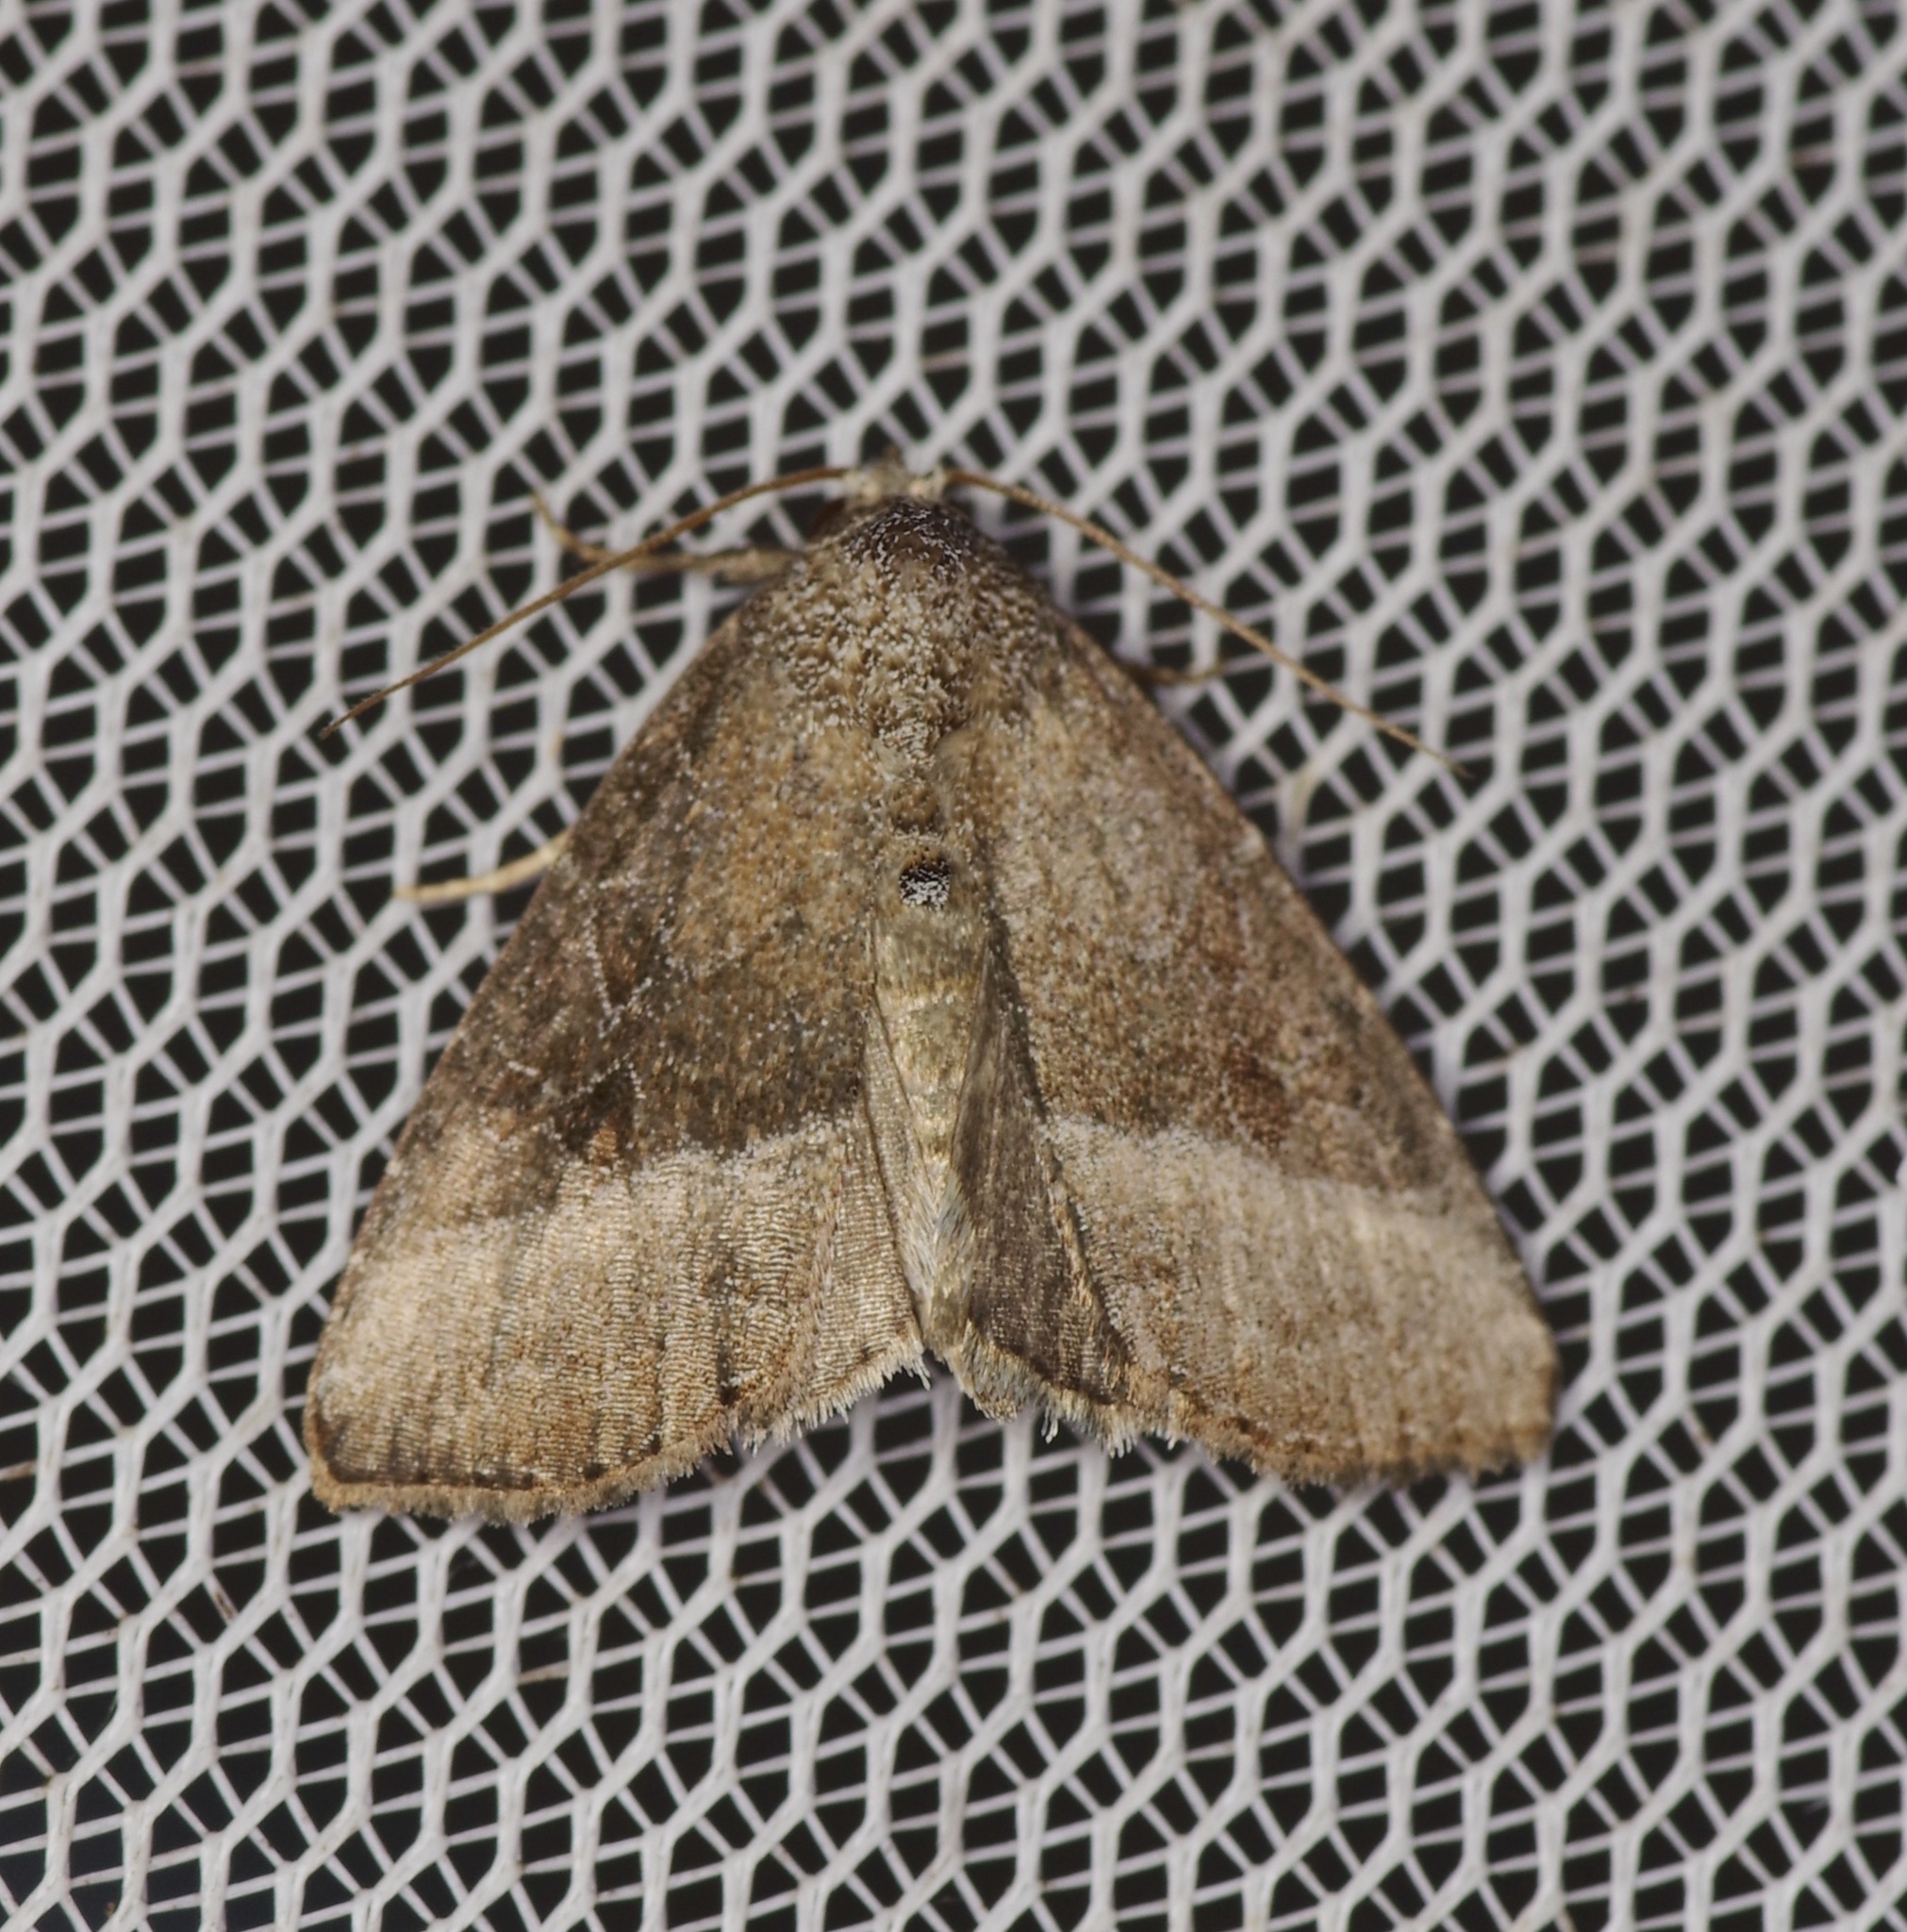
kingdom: Animalia
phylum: Arthropoda
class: Insecta
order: Lepidoptera
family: Noctuidae
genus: Ogdoconta
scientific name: Ogdoconta cinereola
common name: Common pinkband
